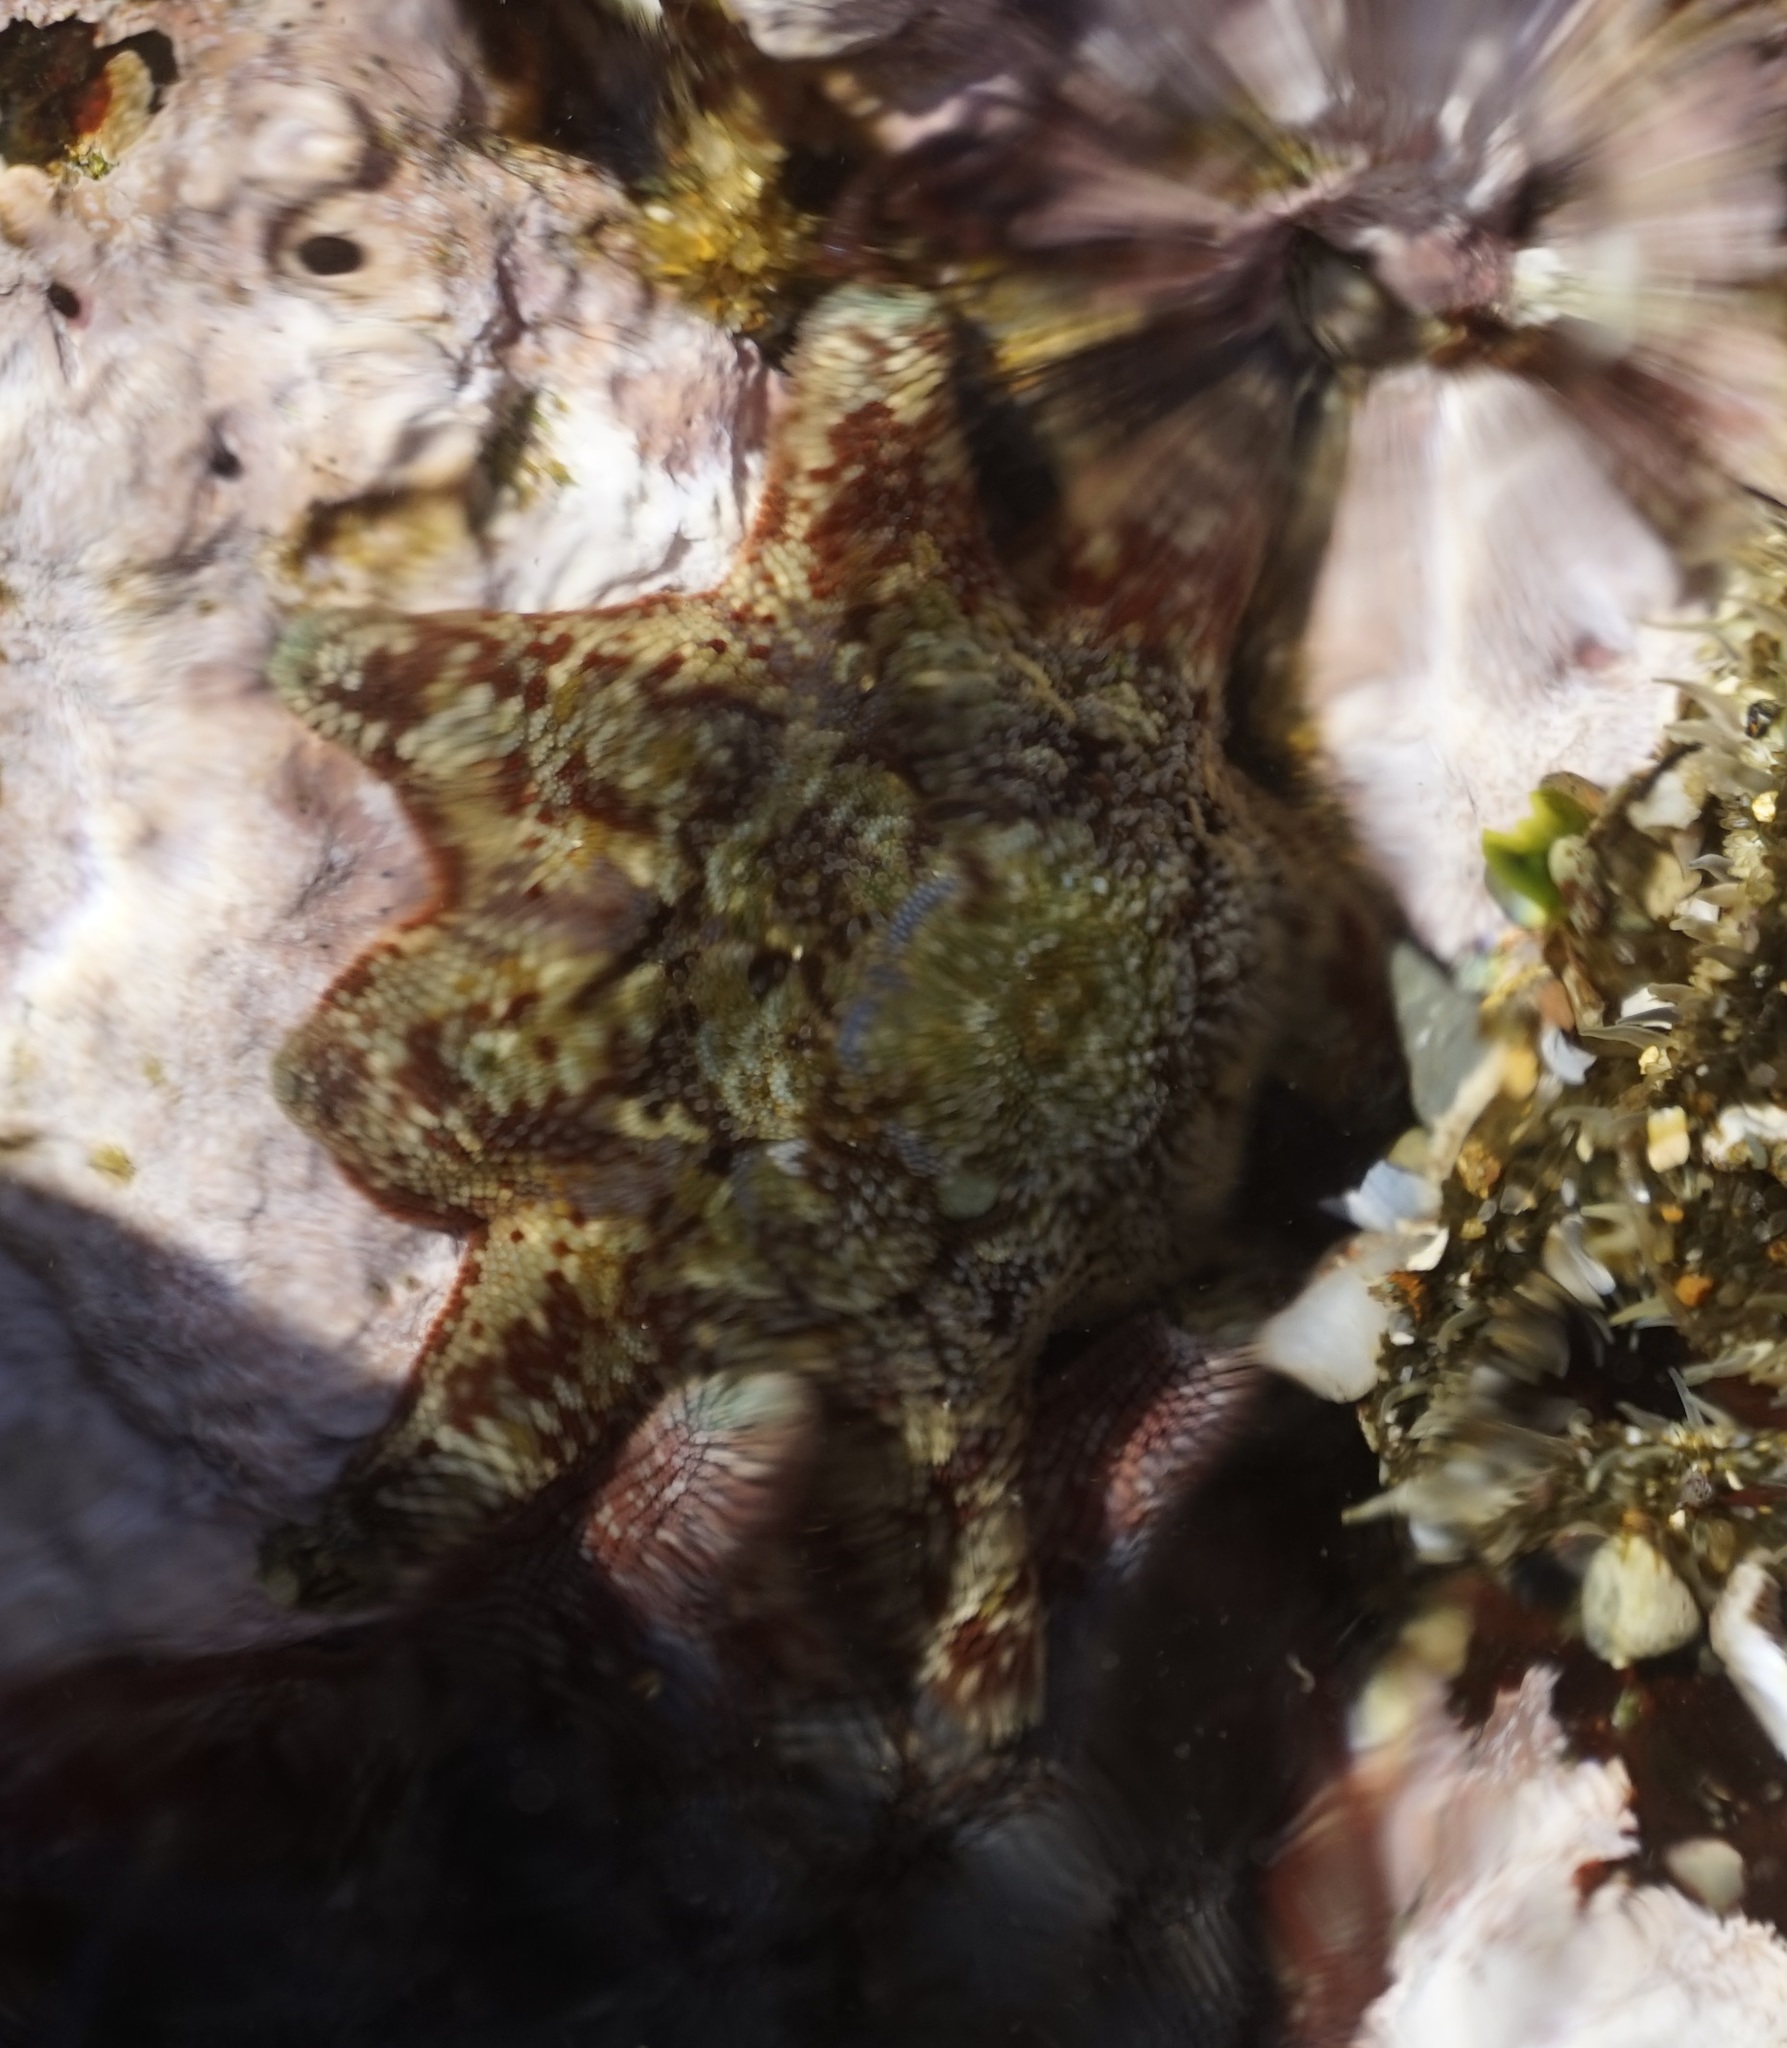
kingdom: Animalia
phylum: Echinodermata
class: Asteroidea
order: Valvatida
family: Asterinidae
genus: Meridiastra
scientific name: Meridiastra calcar
